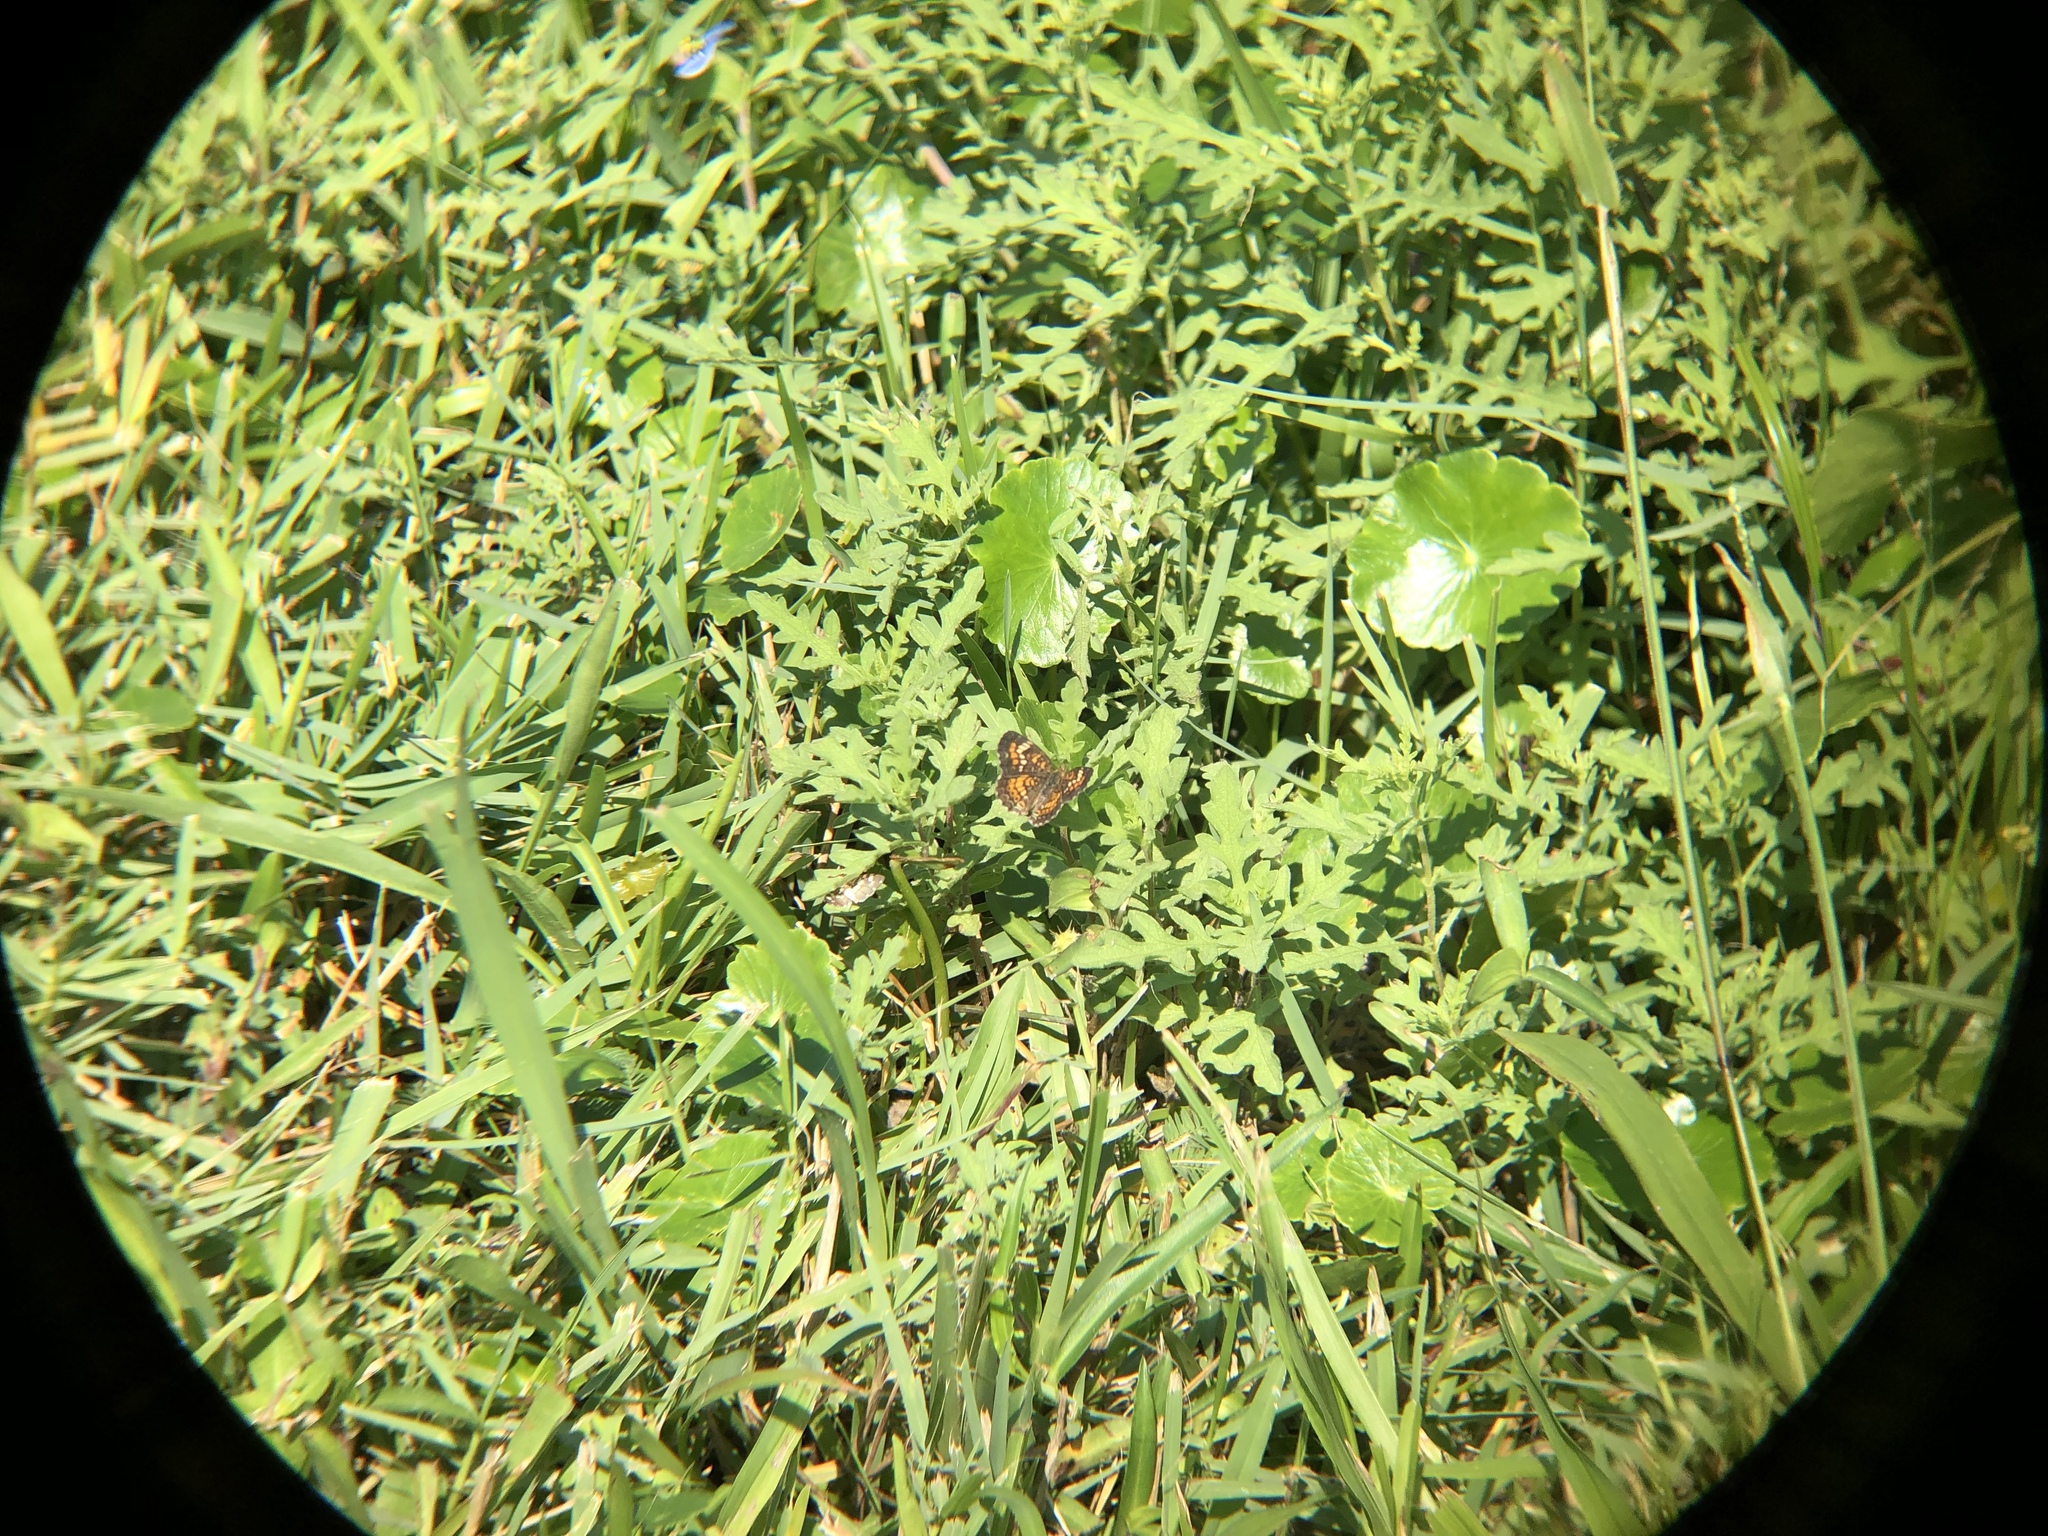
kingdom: Animalia
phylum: Arthropoda
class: Insecta
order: Lepidoptera
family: Nymphalidae
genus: Phyciodes
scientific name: Phyciodes phaon
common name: Phaon crescent
